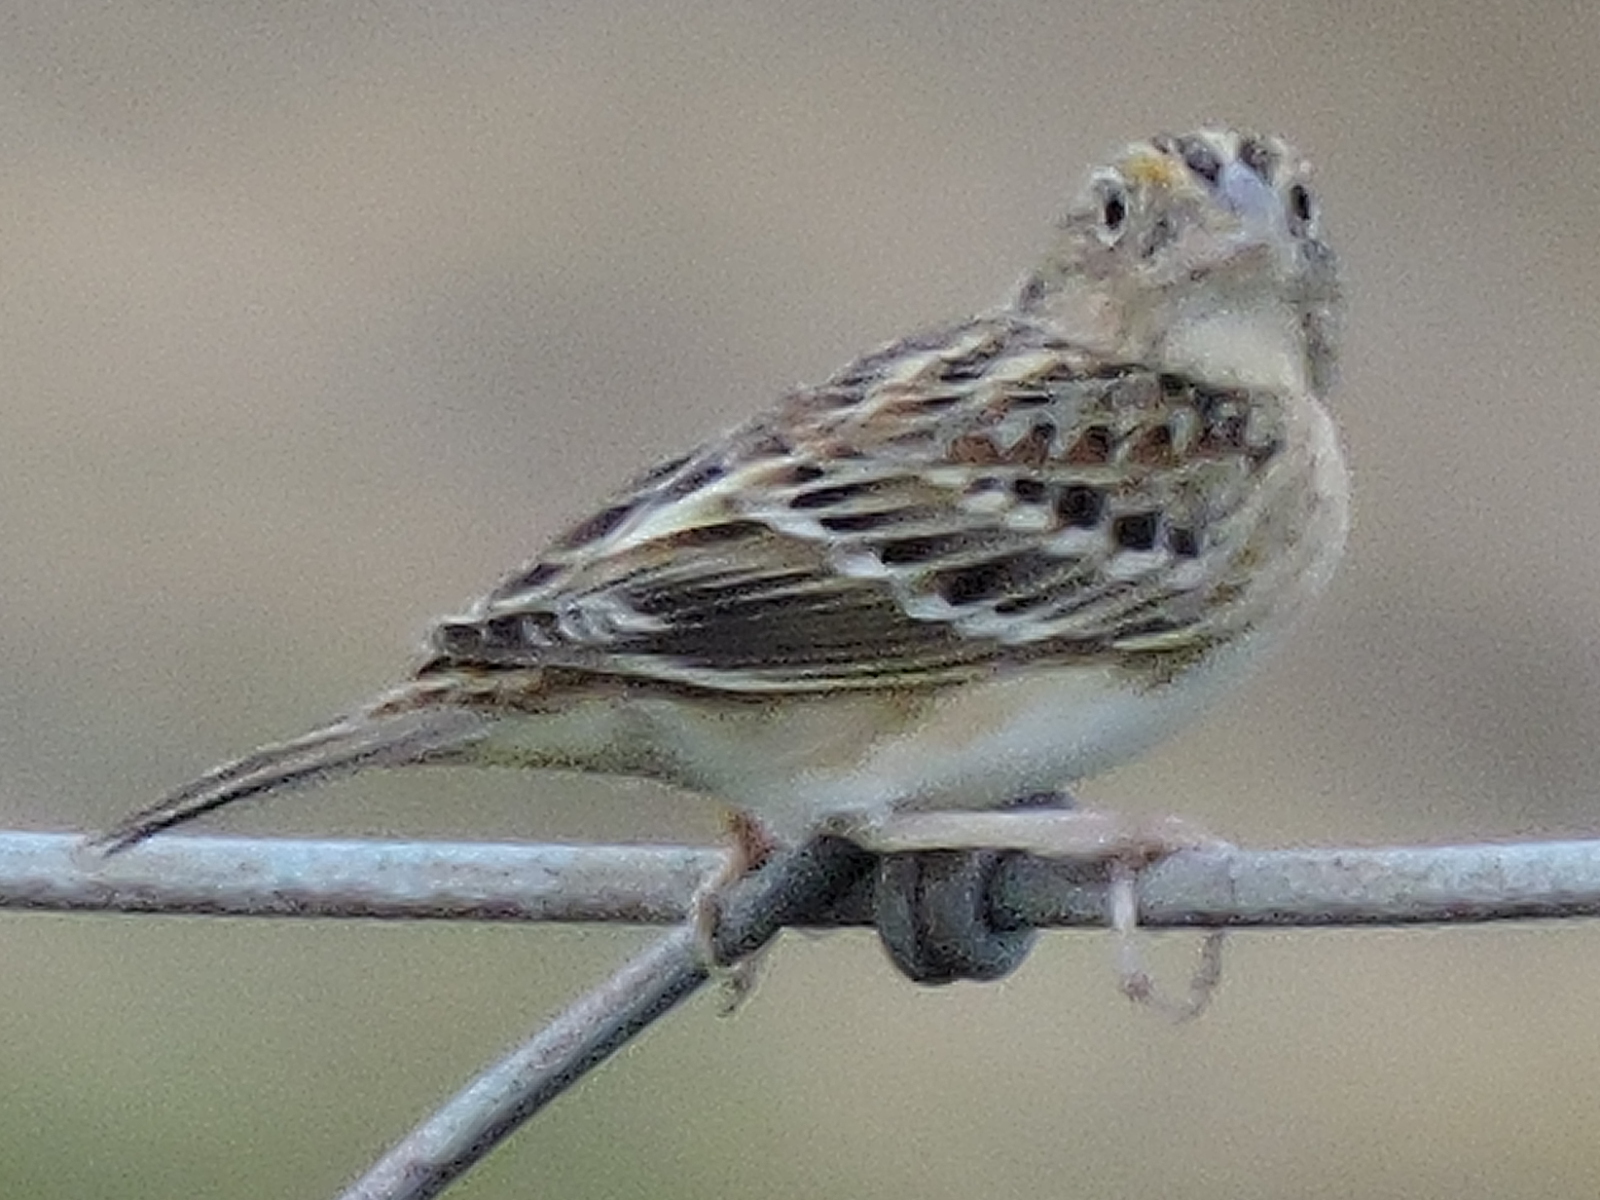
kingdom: Animalia
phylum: Chordata
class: Aves
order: Passeriformes
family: Passerellidae
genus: Ammodramus
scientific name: Ammodramus savannarum
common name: Grasshopper sparrow
